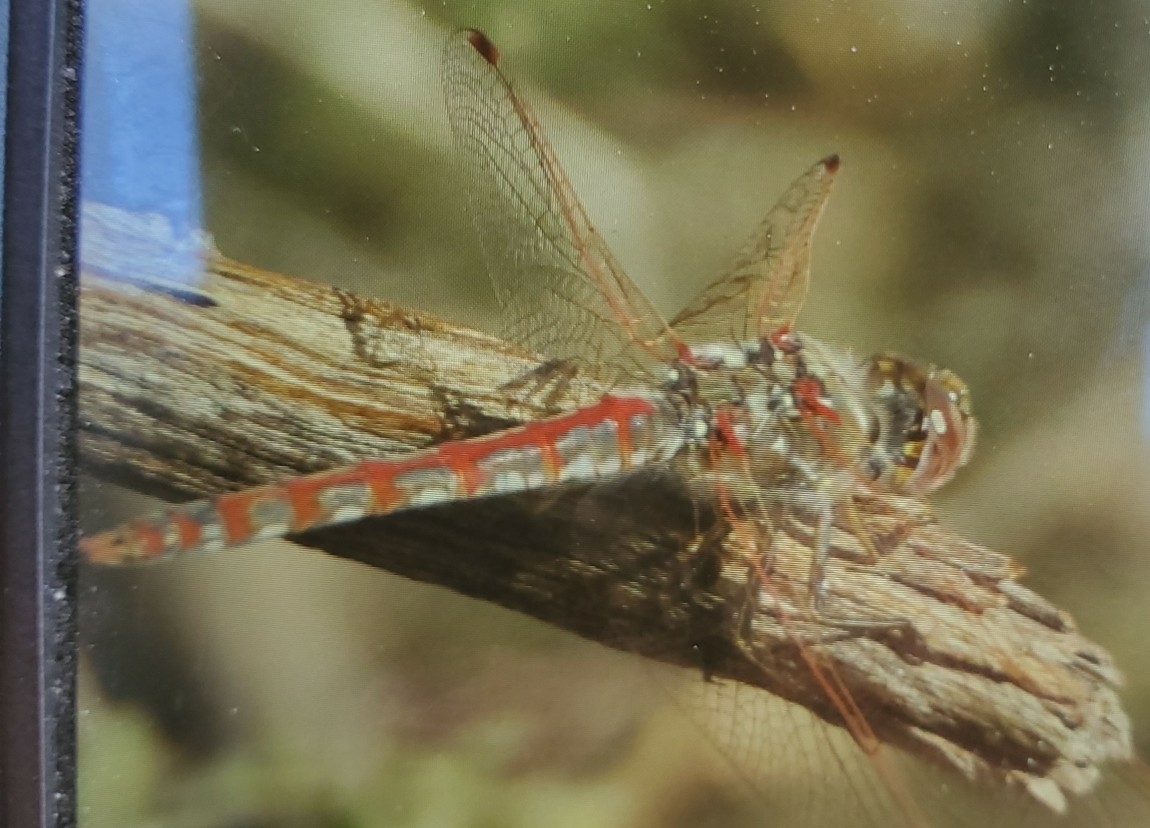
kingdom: Animalia
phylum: Arthropoda
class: Insecta
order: Odonata
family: Libellulidae
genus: Sympetrum
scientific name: Sympetrum corruptum
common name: Variegated meadowhawk
